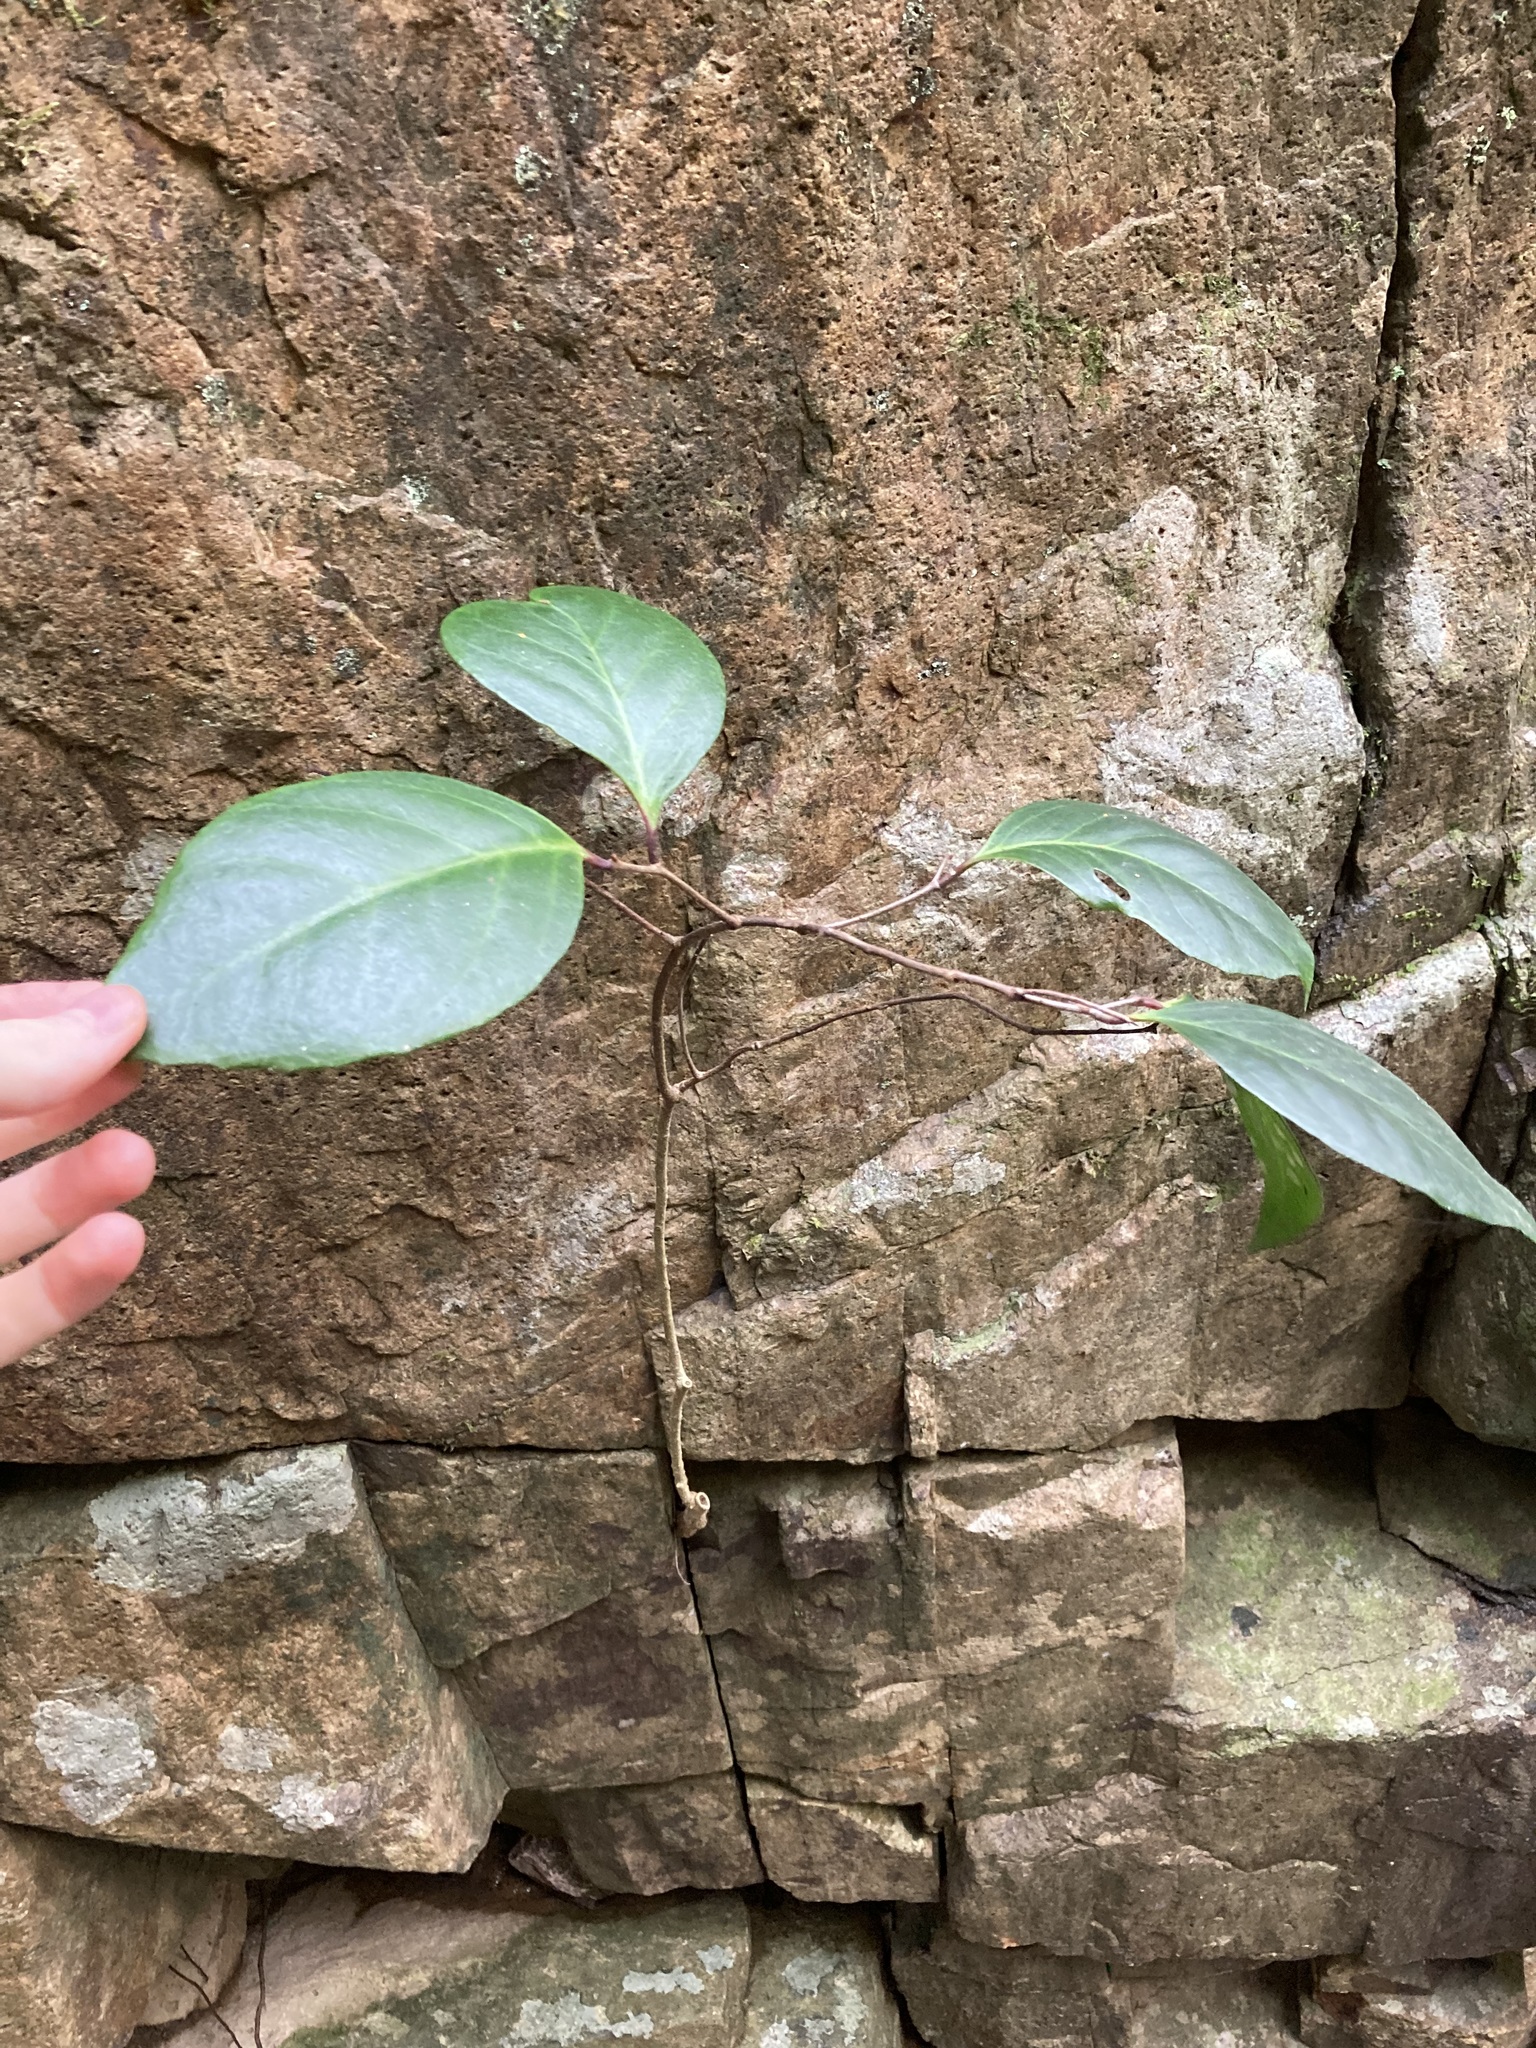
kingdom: Plantae
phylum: Tracheophyta
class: Magnoliopsida
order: Ericales
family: Primulaceae
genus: Embelia
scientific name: Embelia australiana
